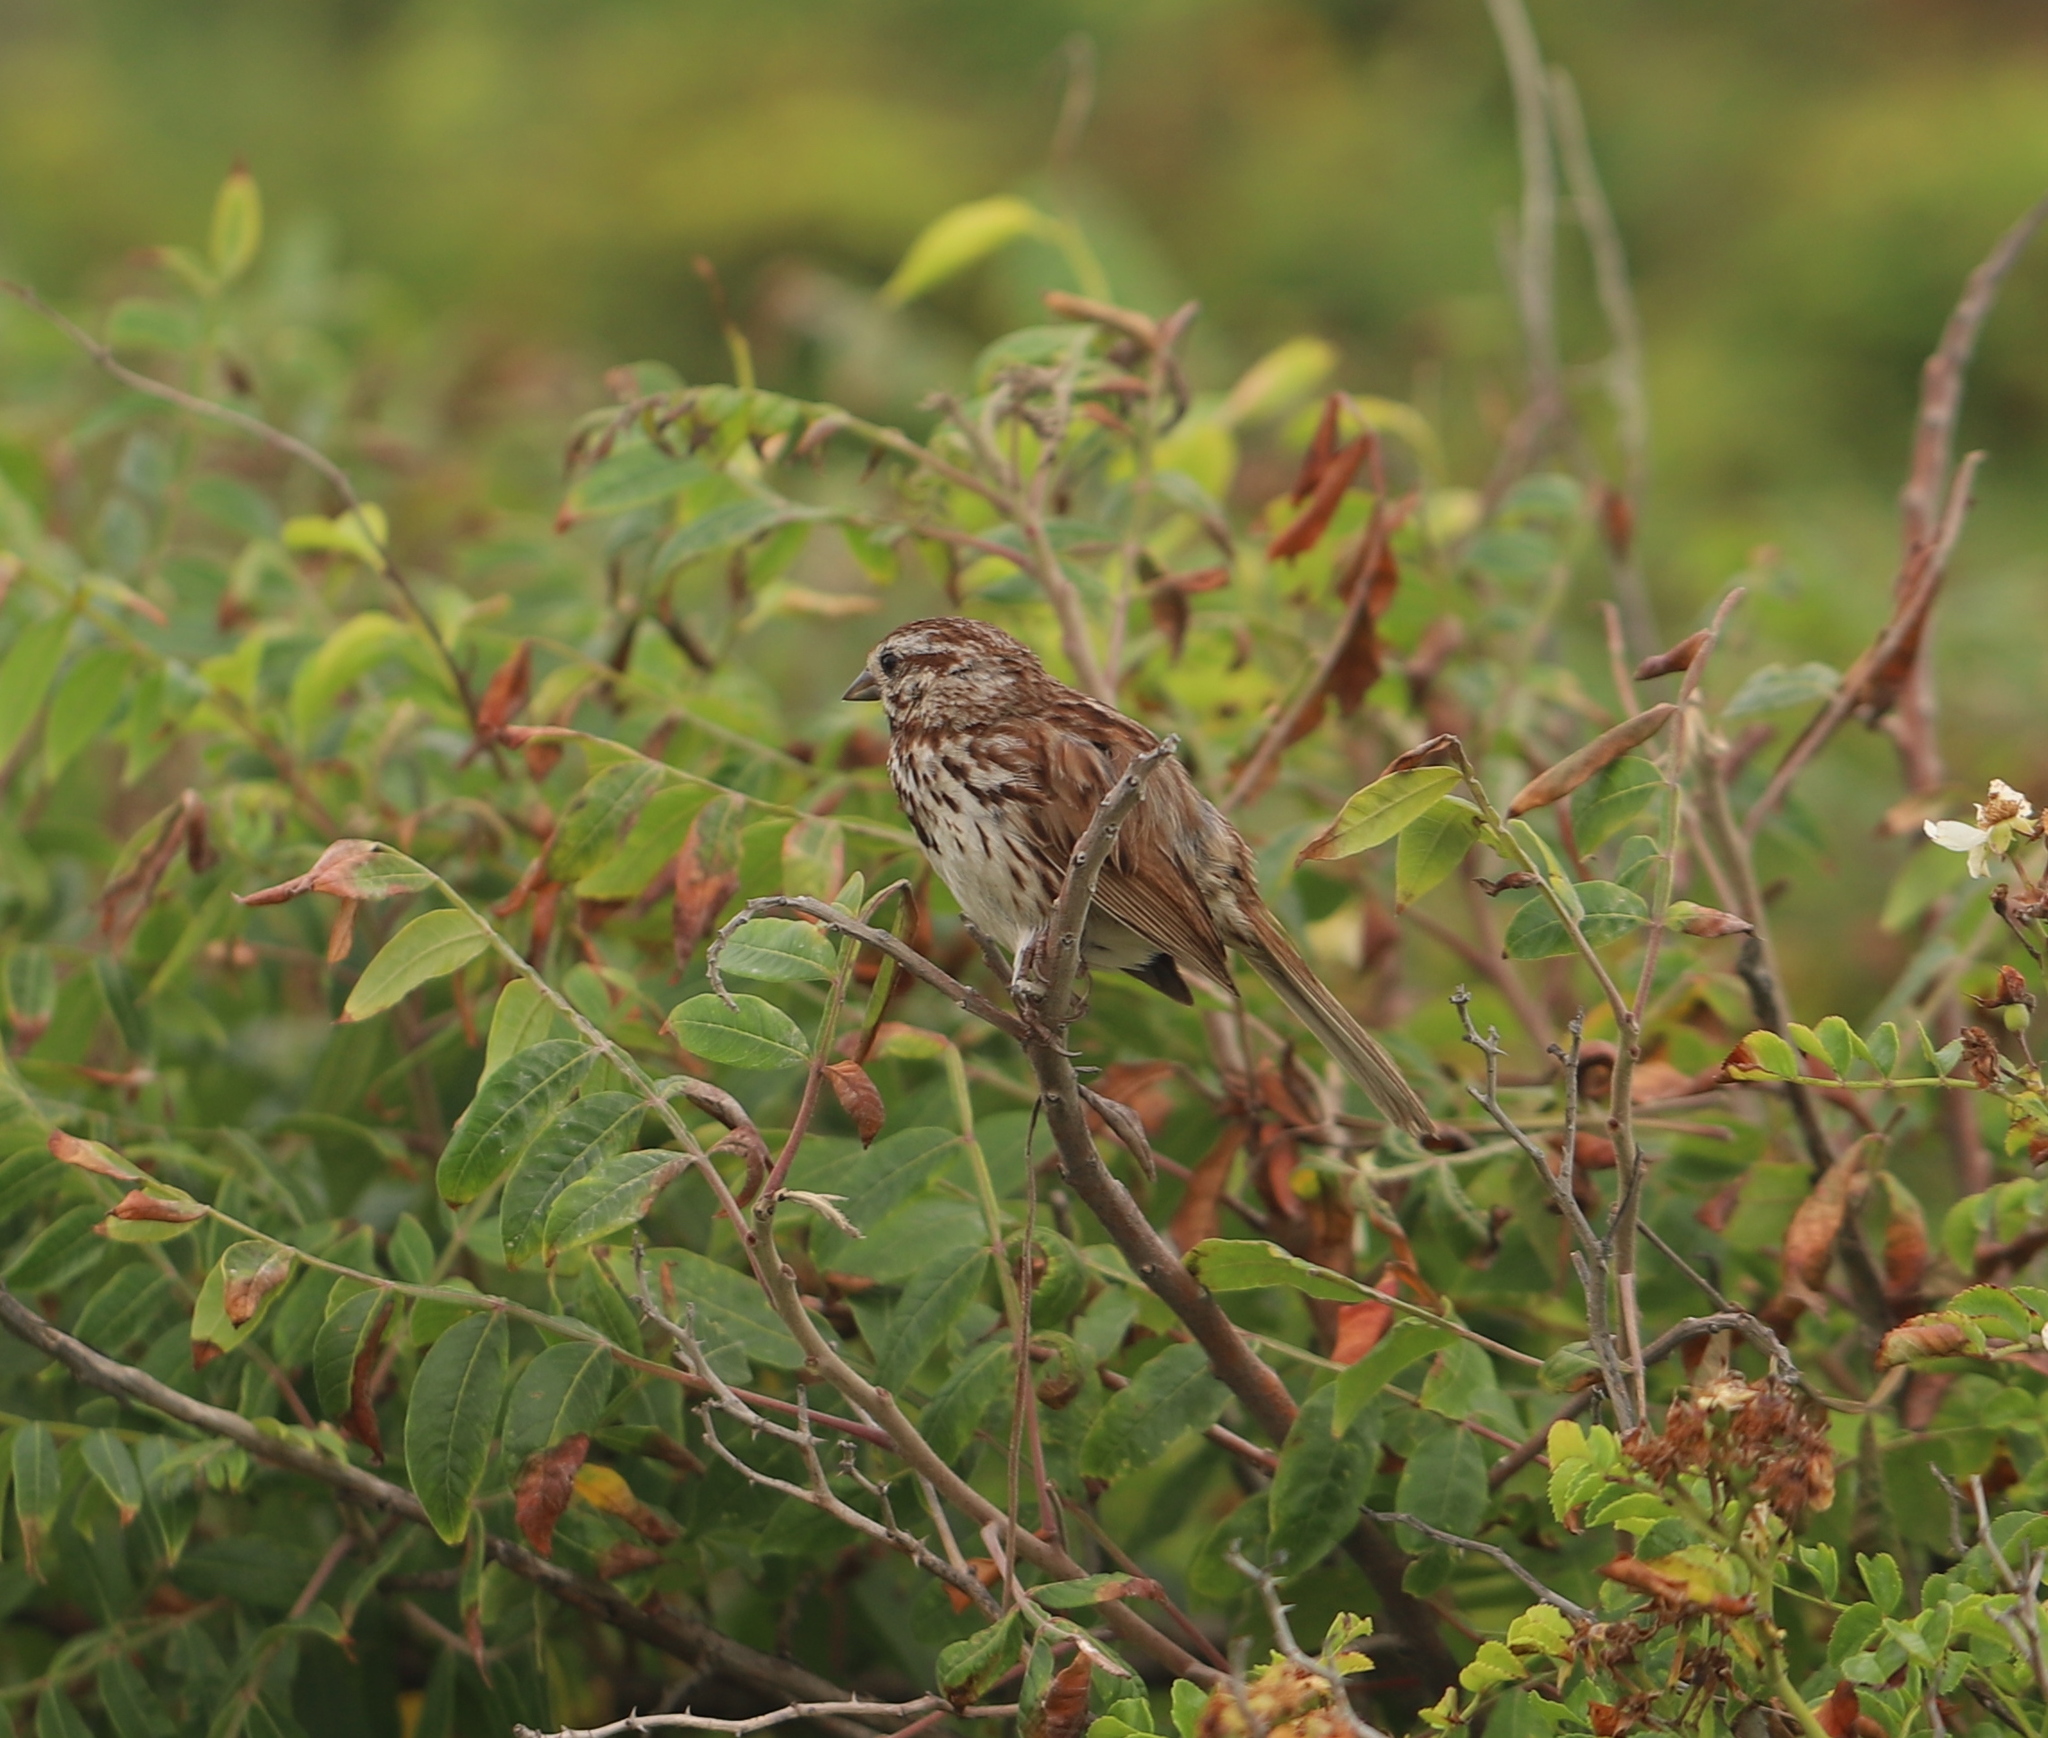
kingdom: Animalia
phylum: Chordata
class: Aves
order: Passeriformes
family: Passerellidae
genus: Melospiza
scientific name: Melospiza melodia
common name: Song sparrow
